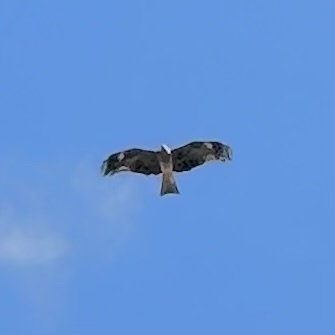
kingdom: Animalia
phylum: Chordata
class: Aves
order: Accipitriformes
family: Accipitridae
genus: Milvus
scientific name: Milvus migrans
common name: Black kite
